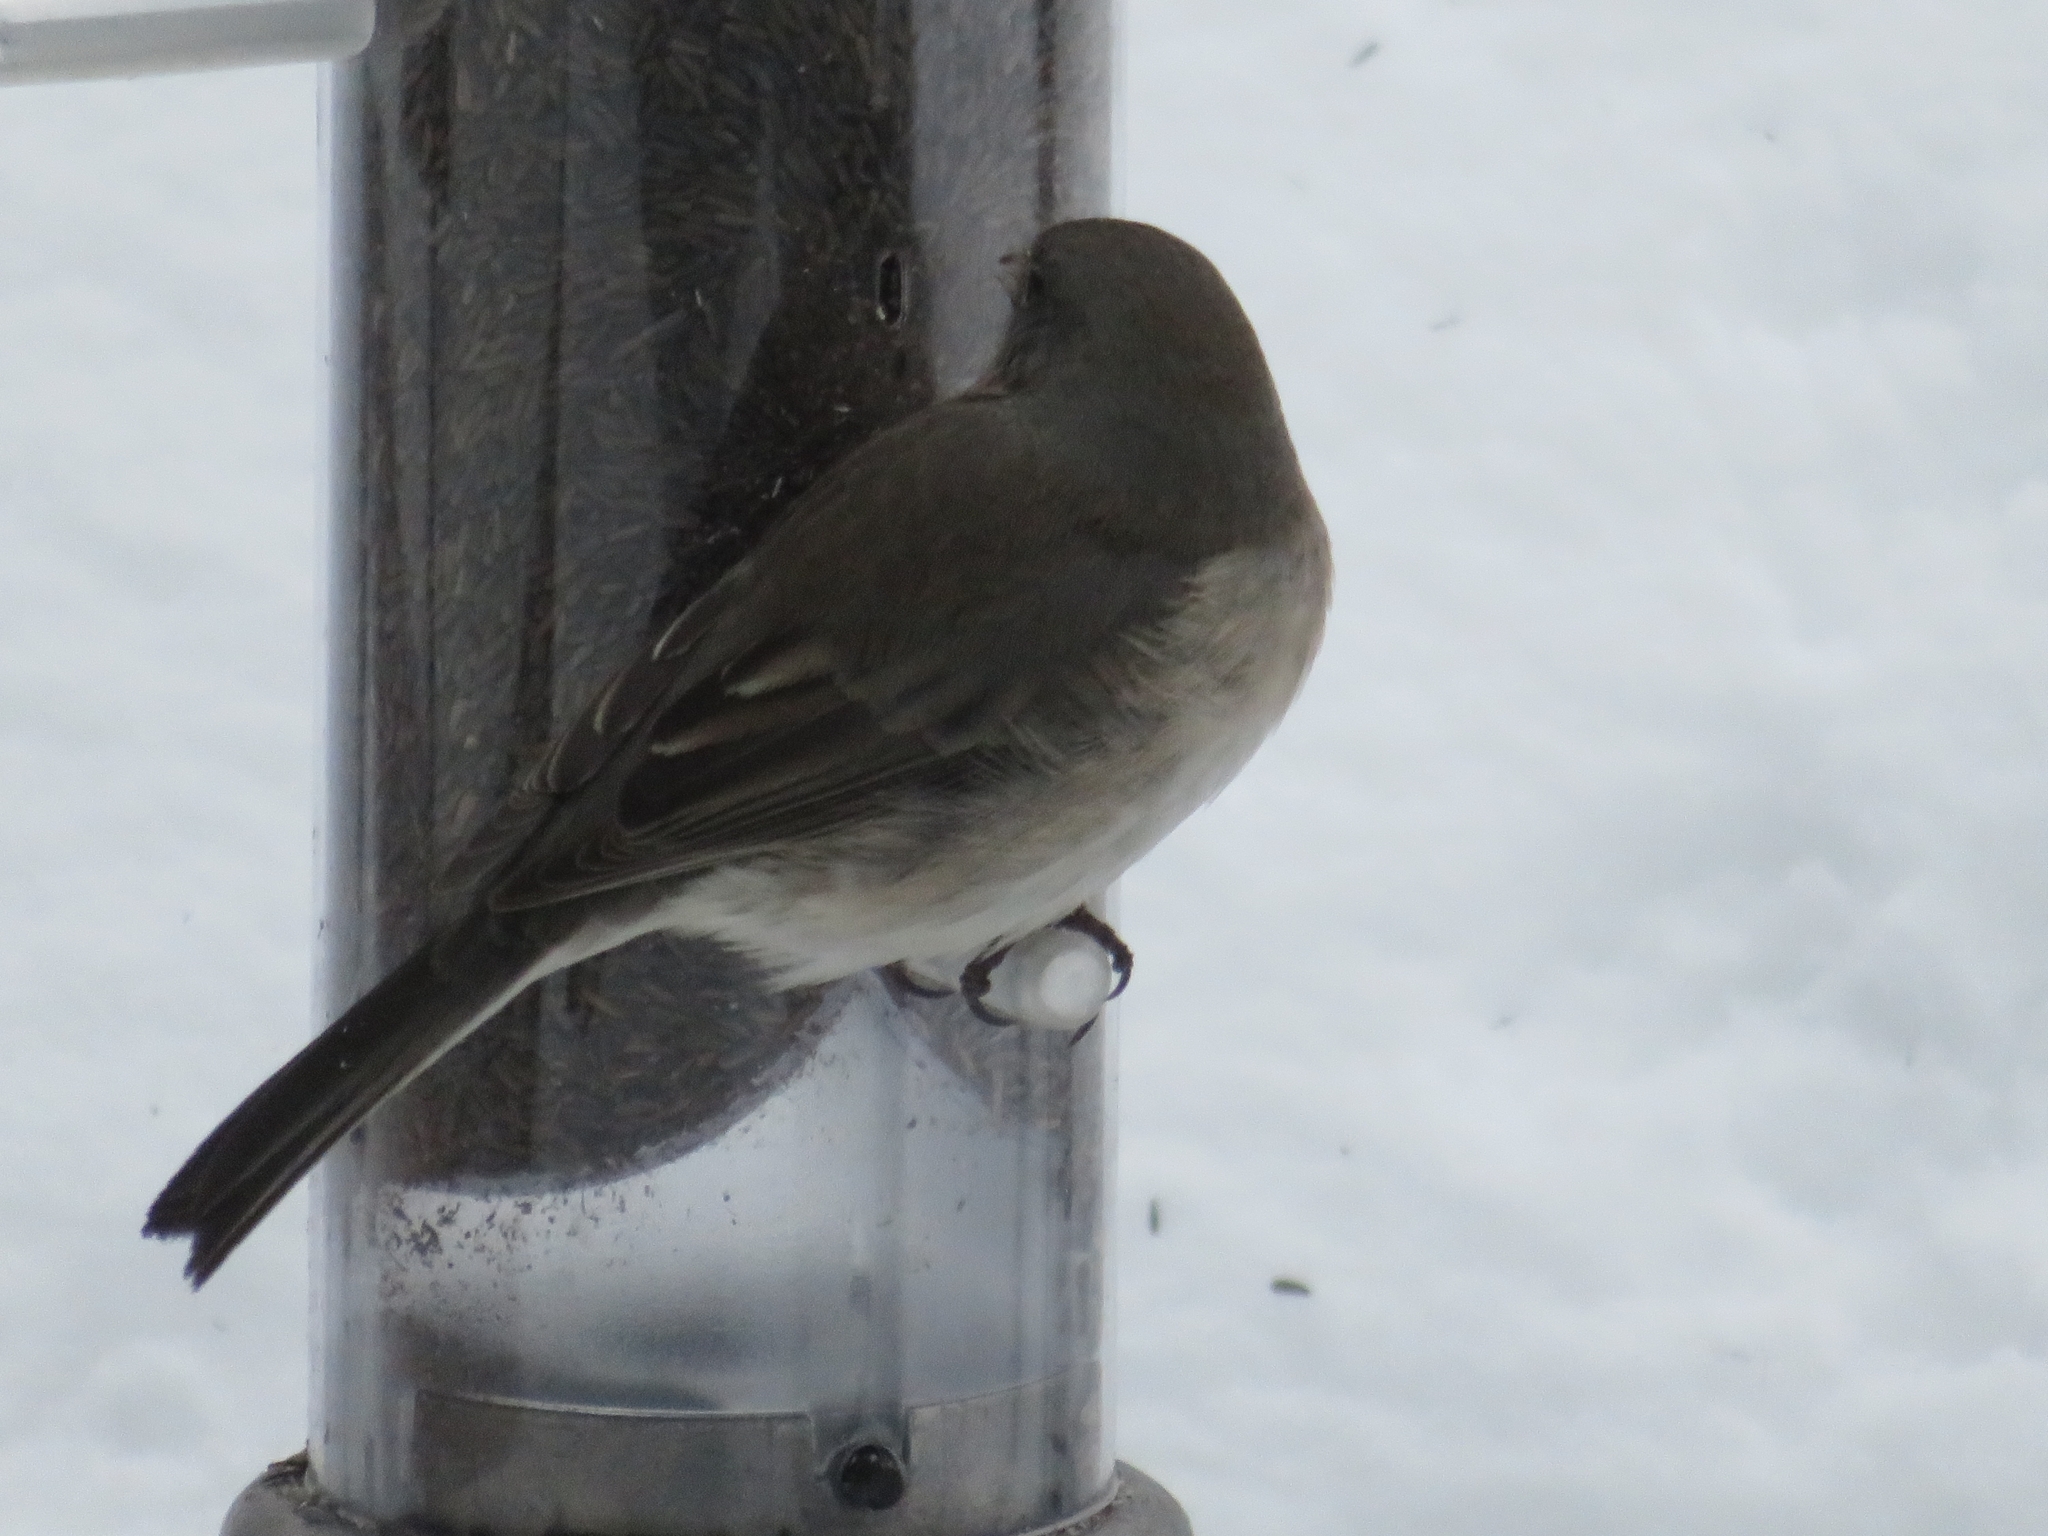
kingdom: Animalia
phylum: Chordata
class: Aves
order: Passeriformes
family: Passerellidae
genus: Junco
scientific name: Junco hyemalis
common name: Dark-eyed junco
